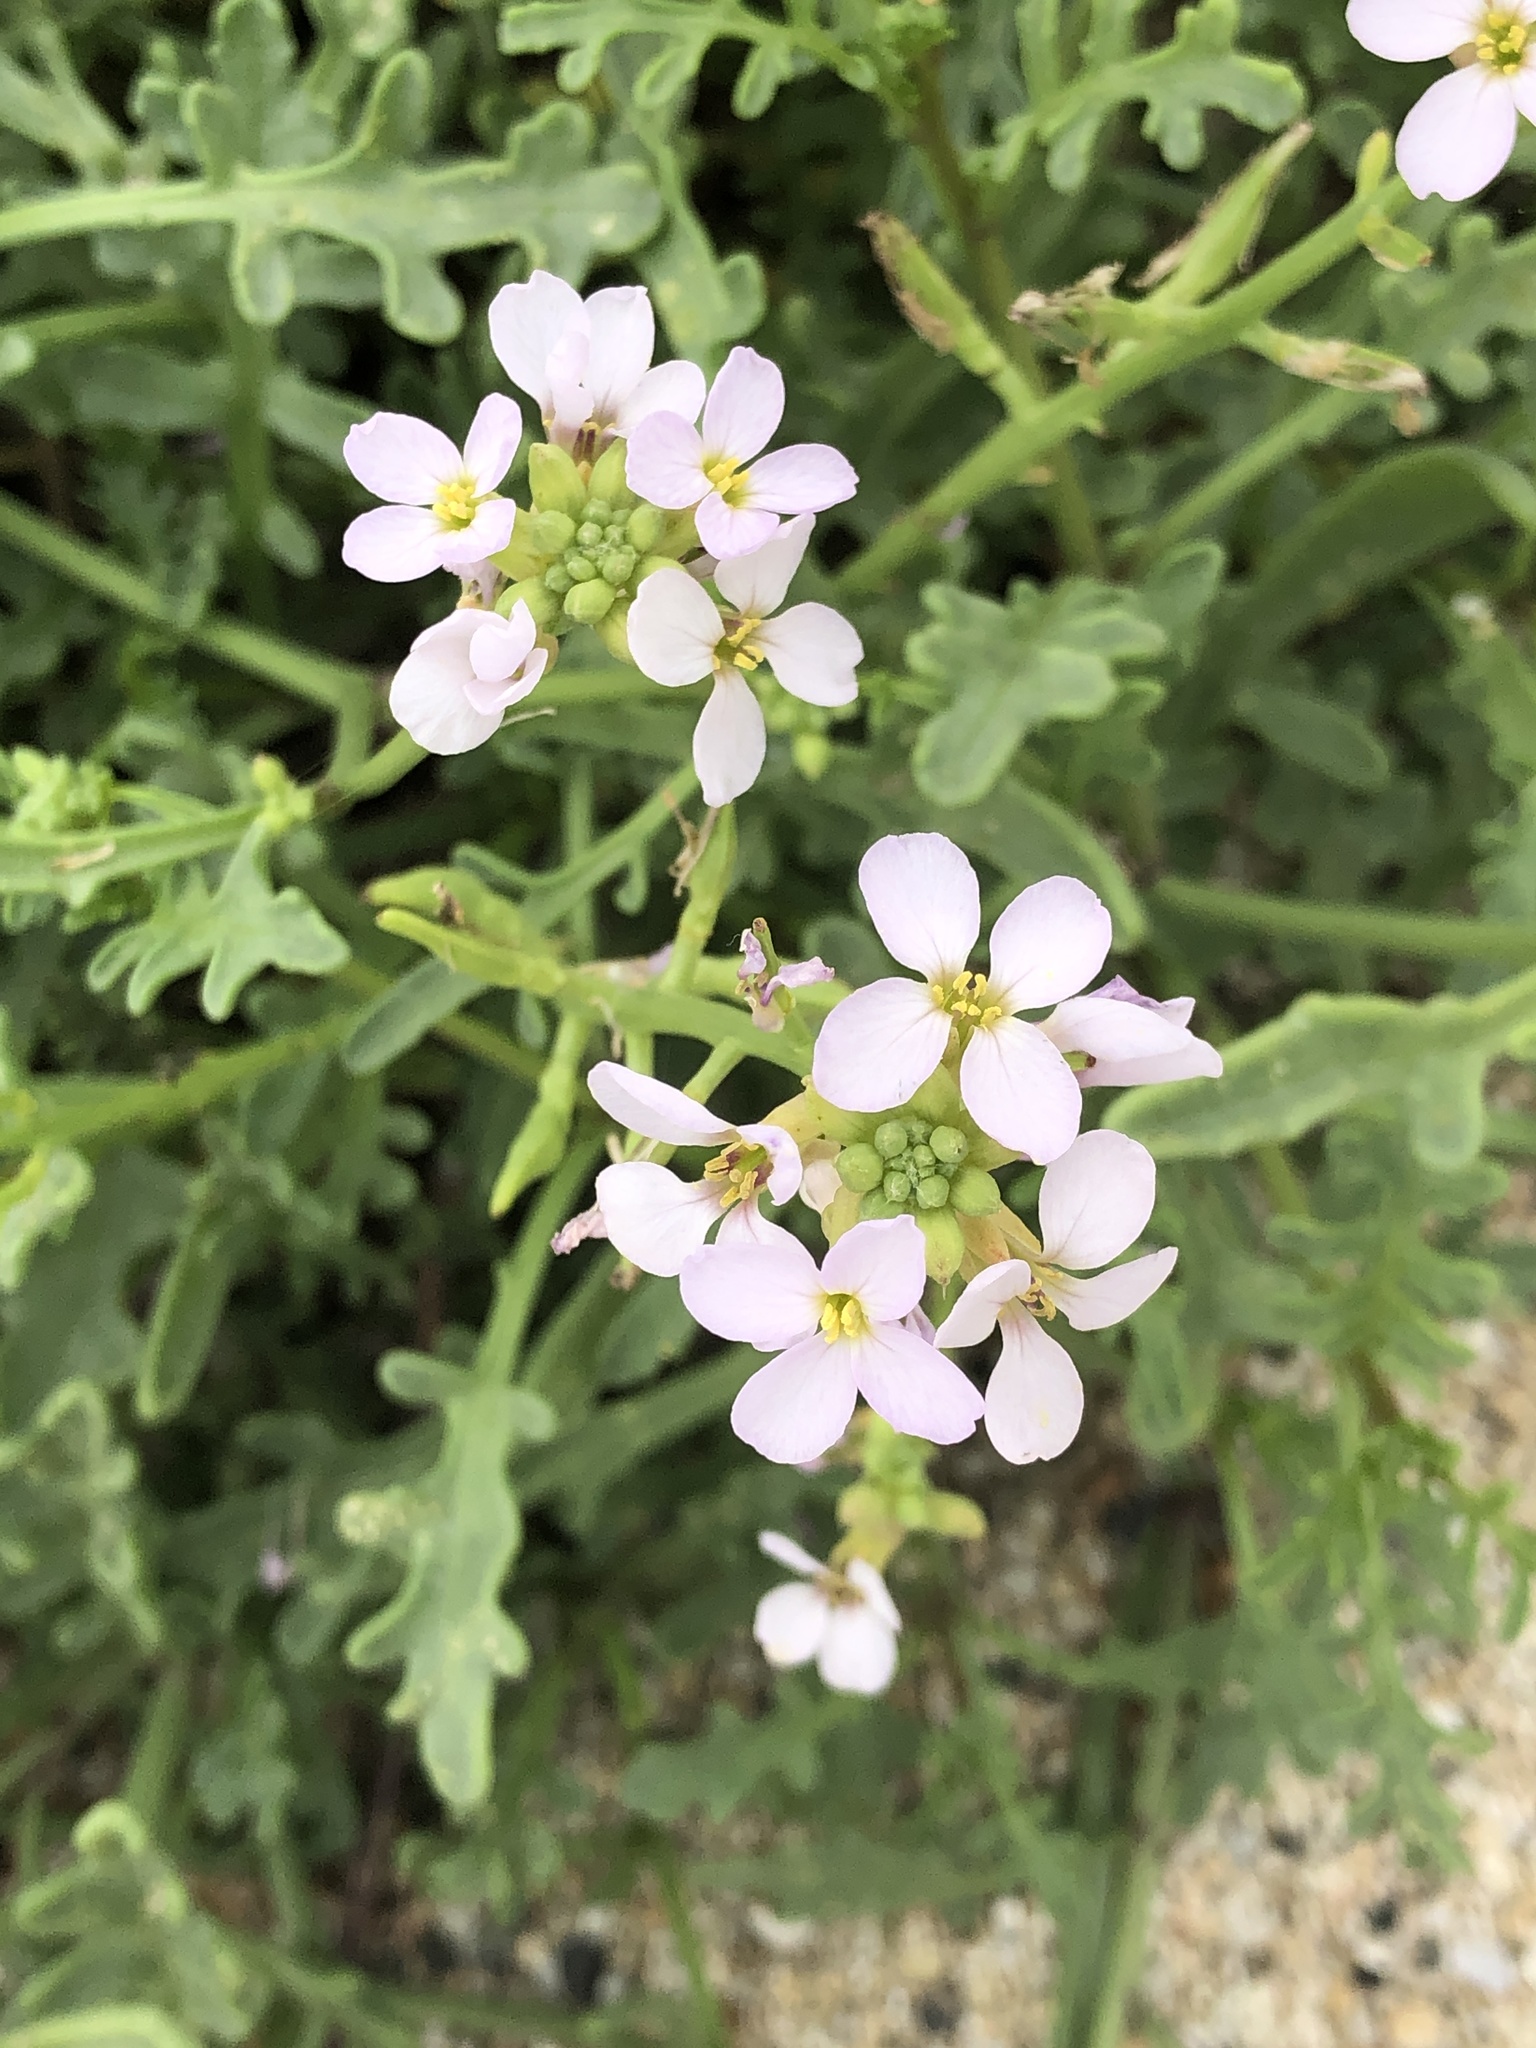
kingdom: Plantae
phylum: Tracheophyta
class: Magnoliopsida
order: Brassicales
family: Brassicaceae
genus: Cakile
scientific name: Cakile maritima
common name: Sea rocket
